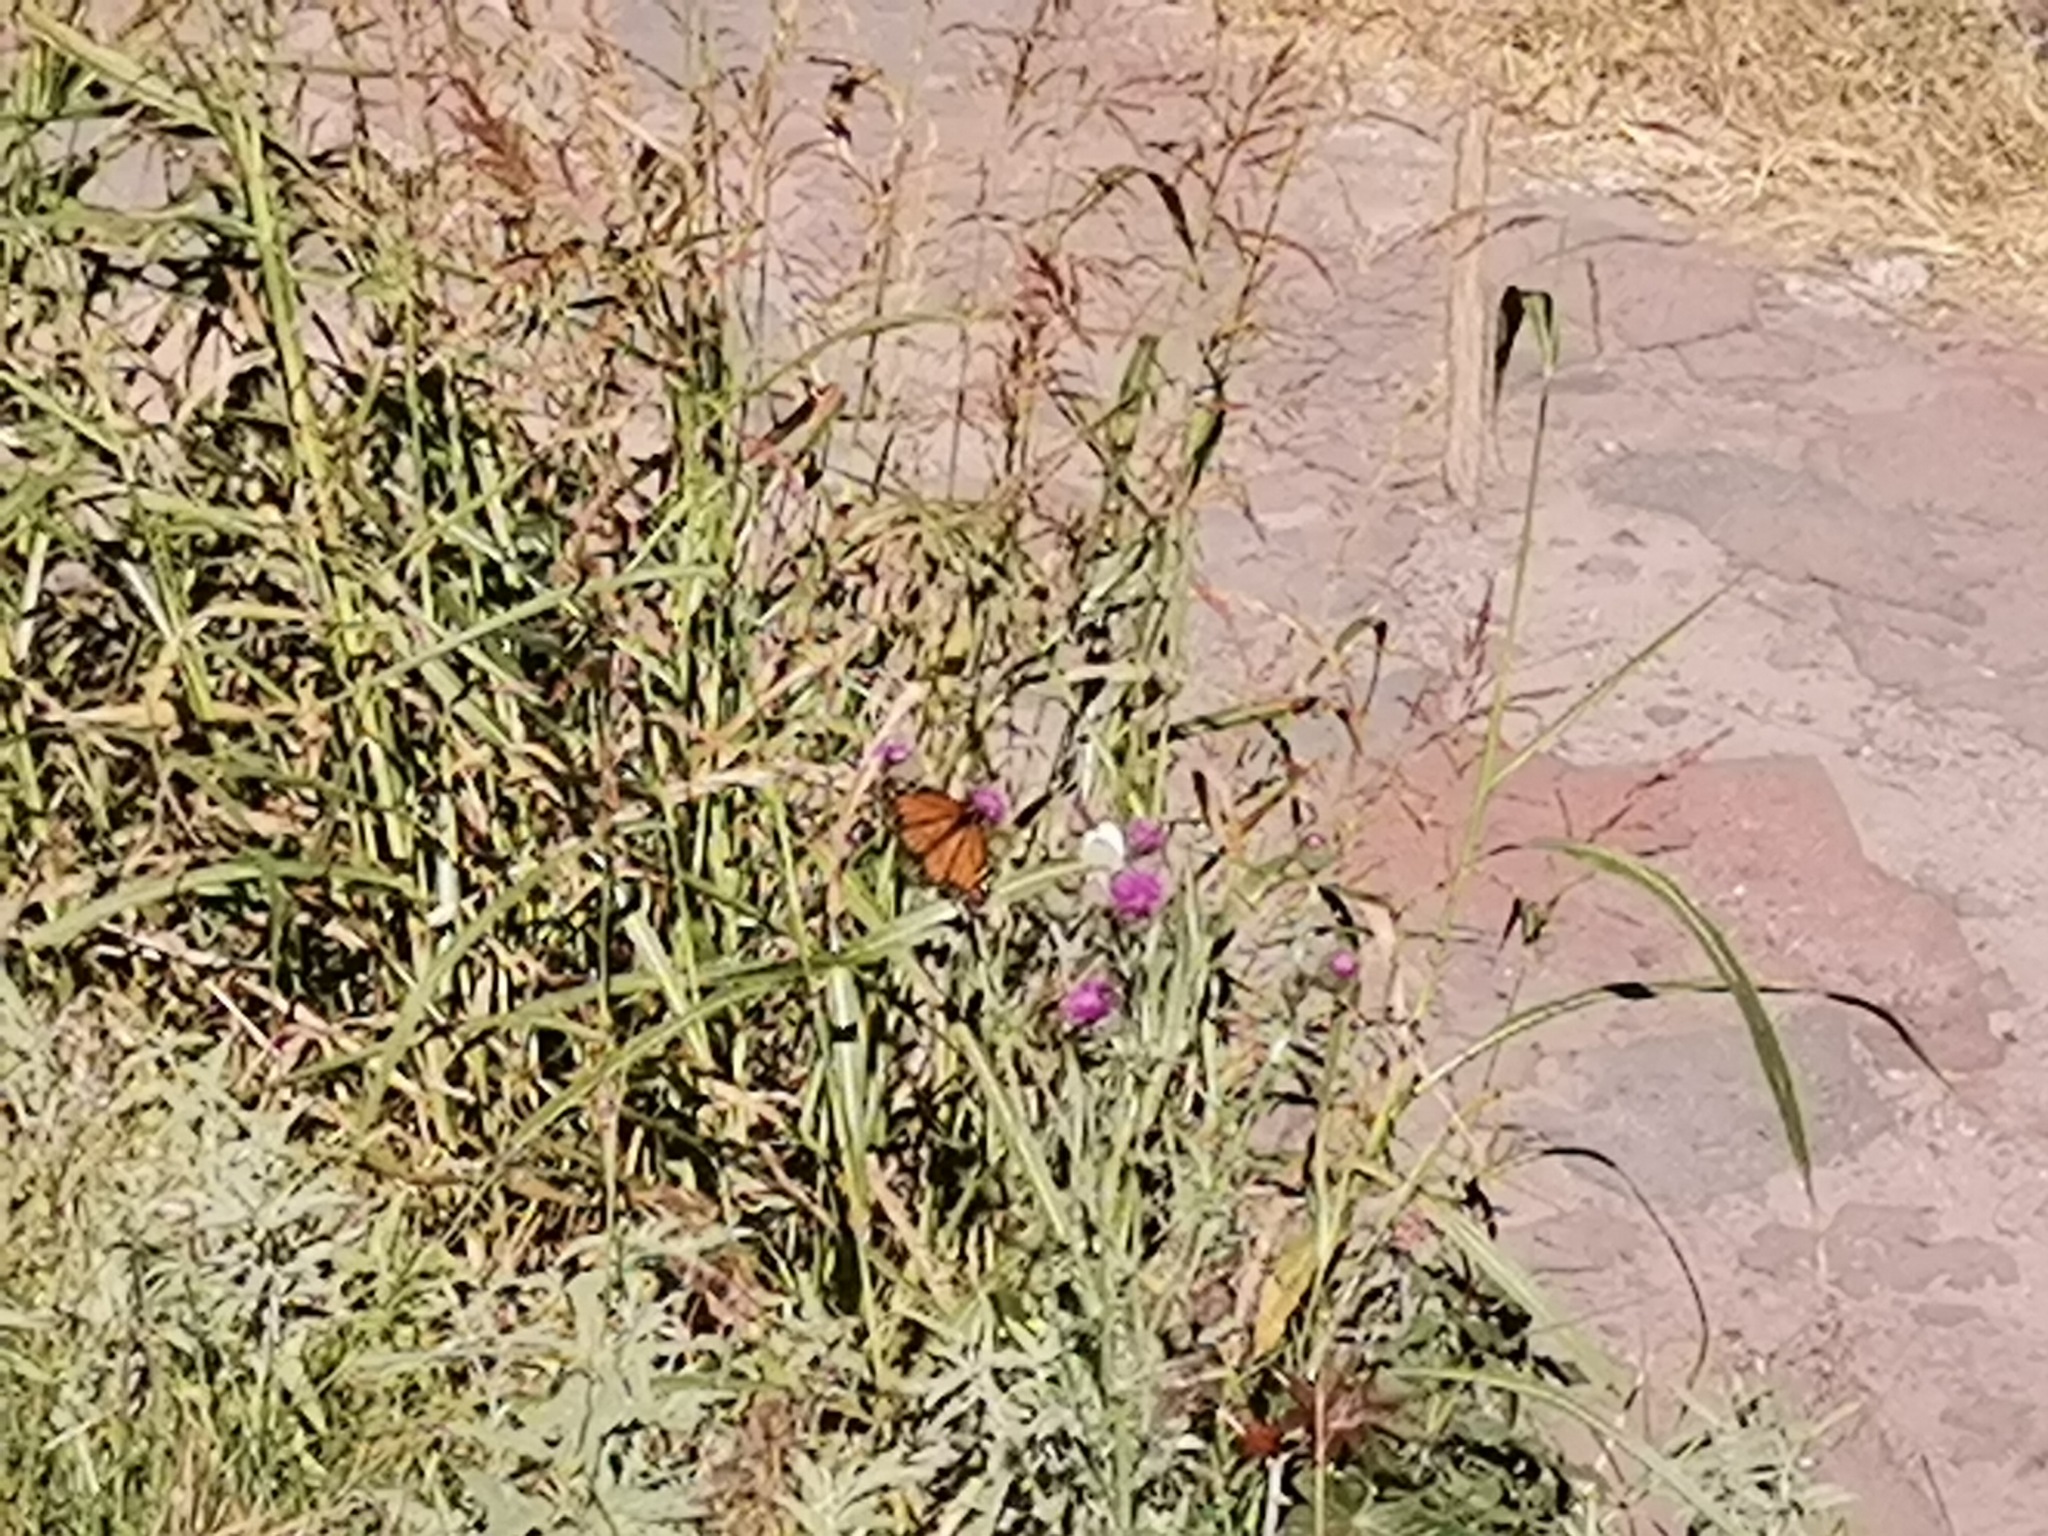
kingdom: Animalia
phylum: Arthropoda
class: Insecta
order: Lepidoptera
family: Nymphalidae
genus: Danaus
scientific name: Danaus plexippus
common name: Monarch
